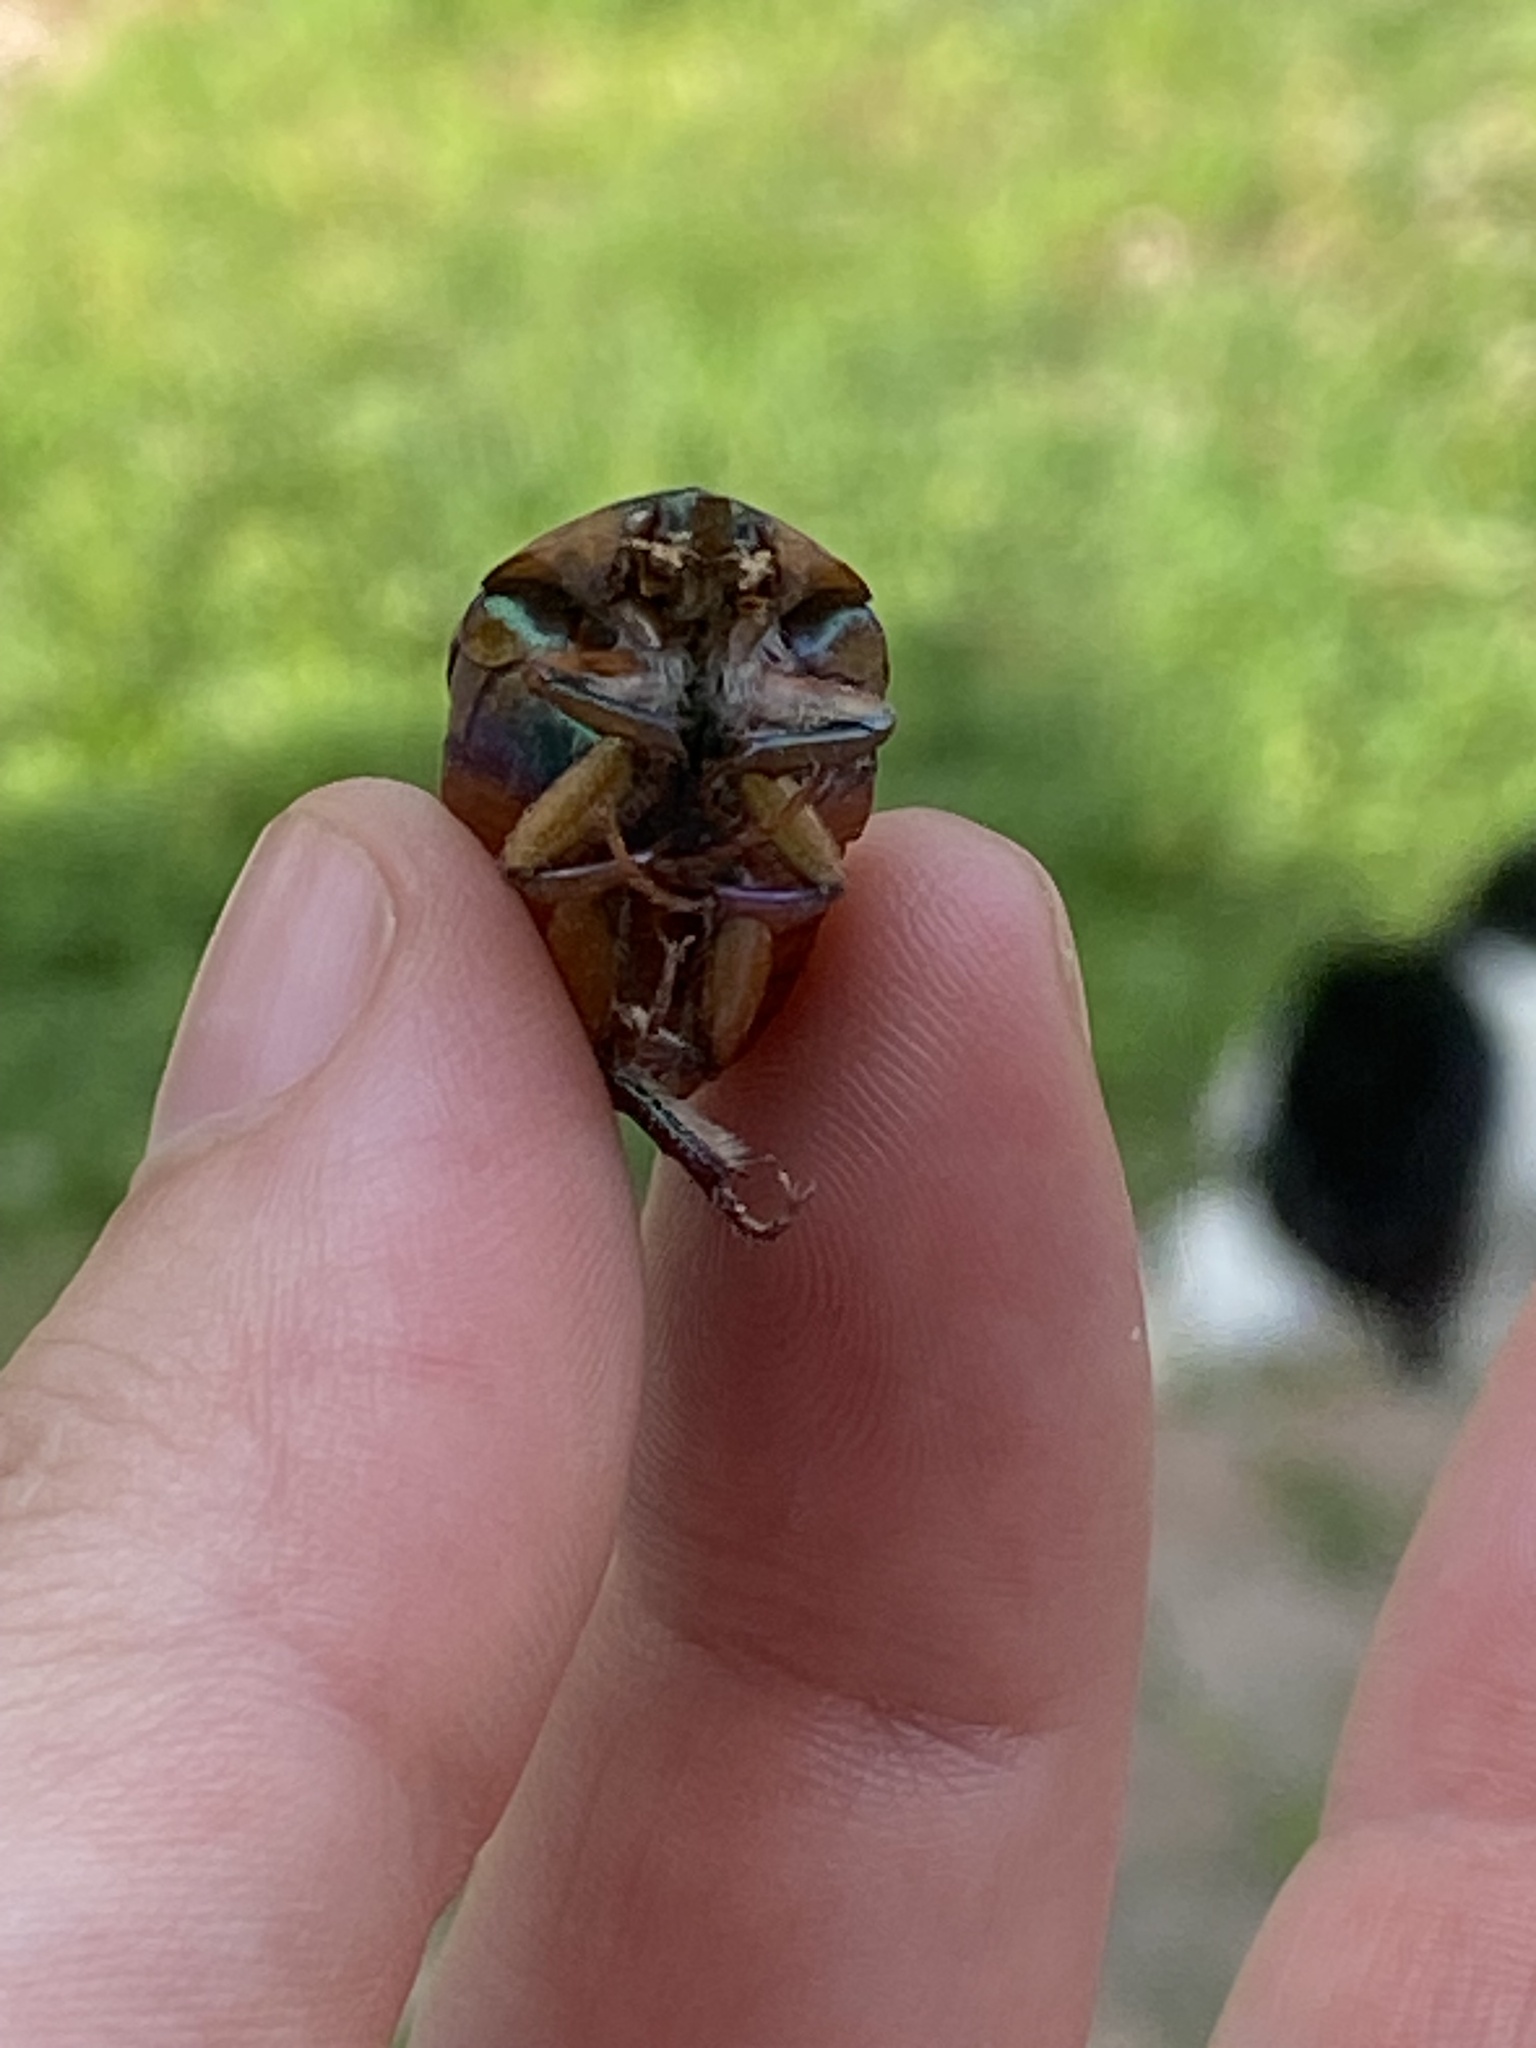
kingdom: Animalia
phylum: Arthropoda
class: Insecta
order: Coleoptera
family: Scarabaeidae
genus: Cotinis
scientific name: Cotinis nitida
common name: Common green june beetle
